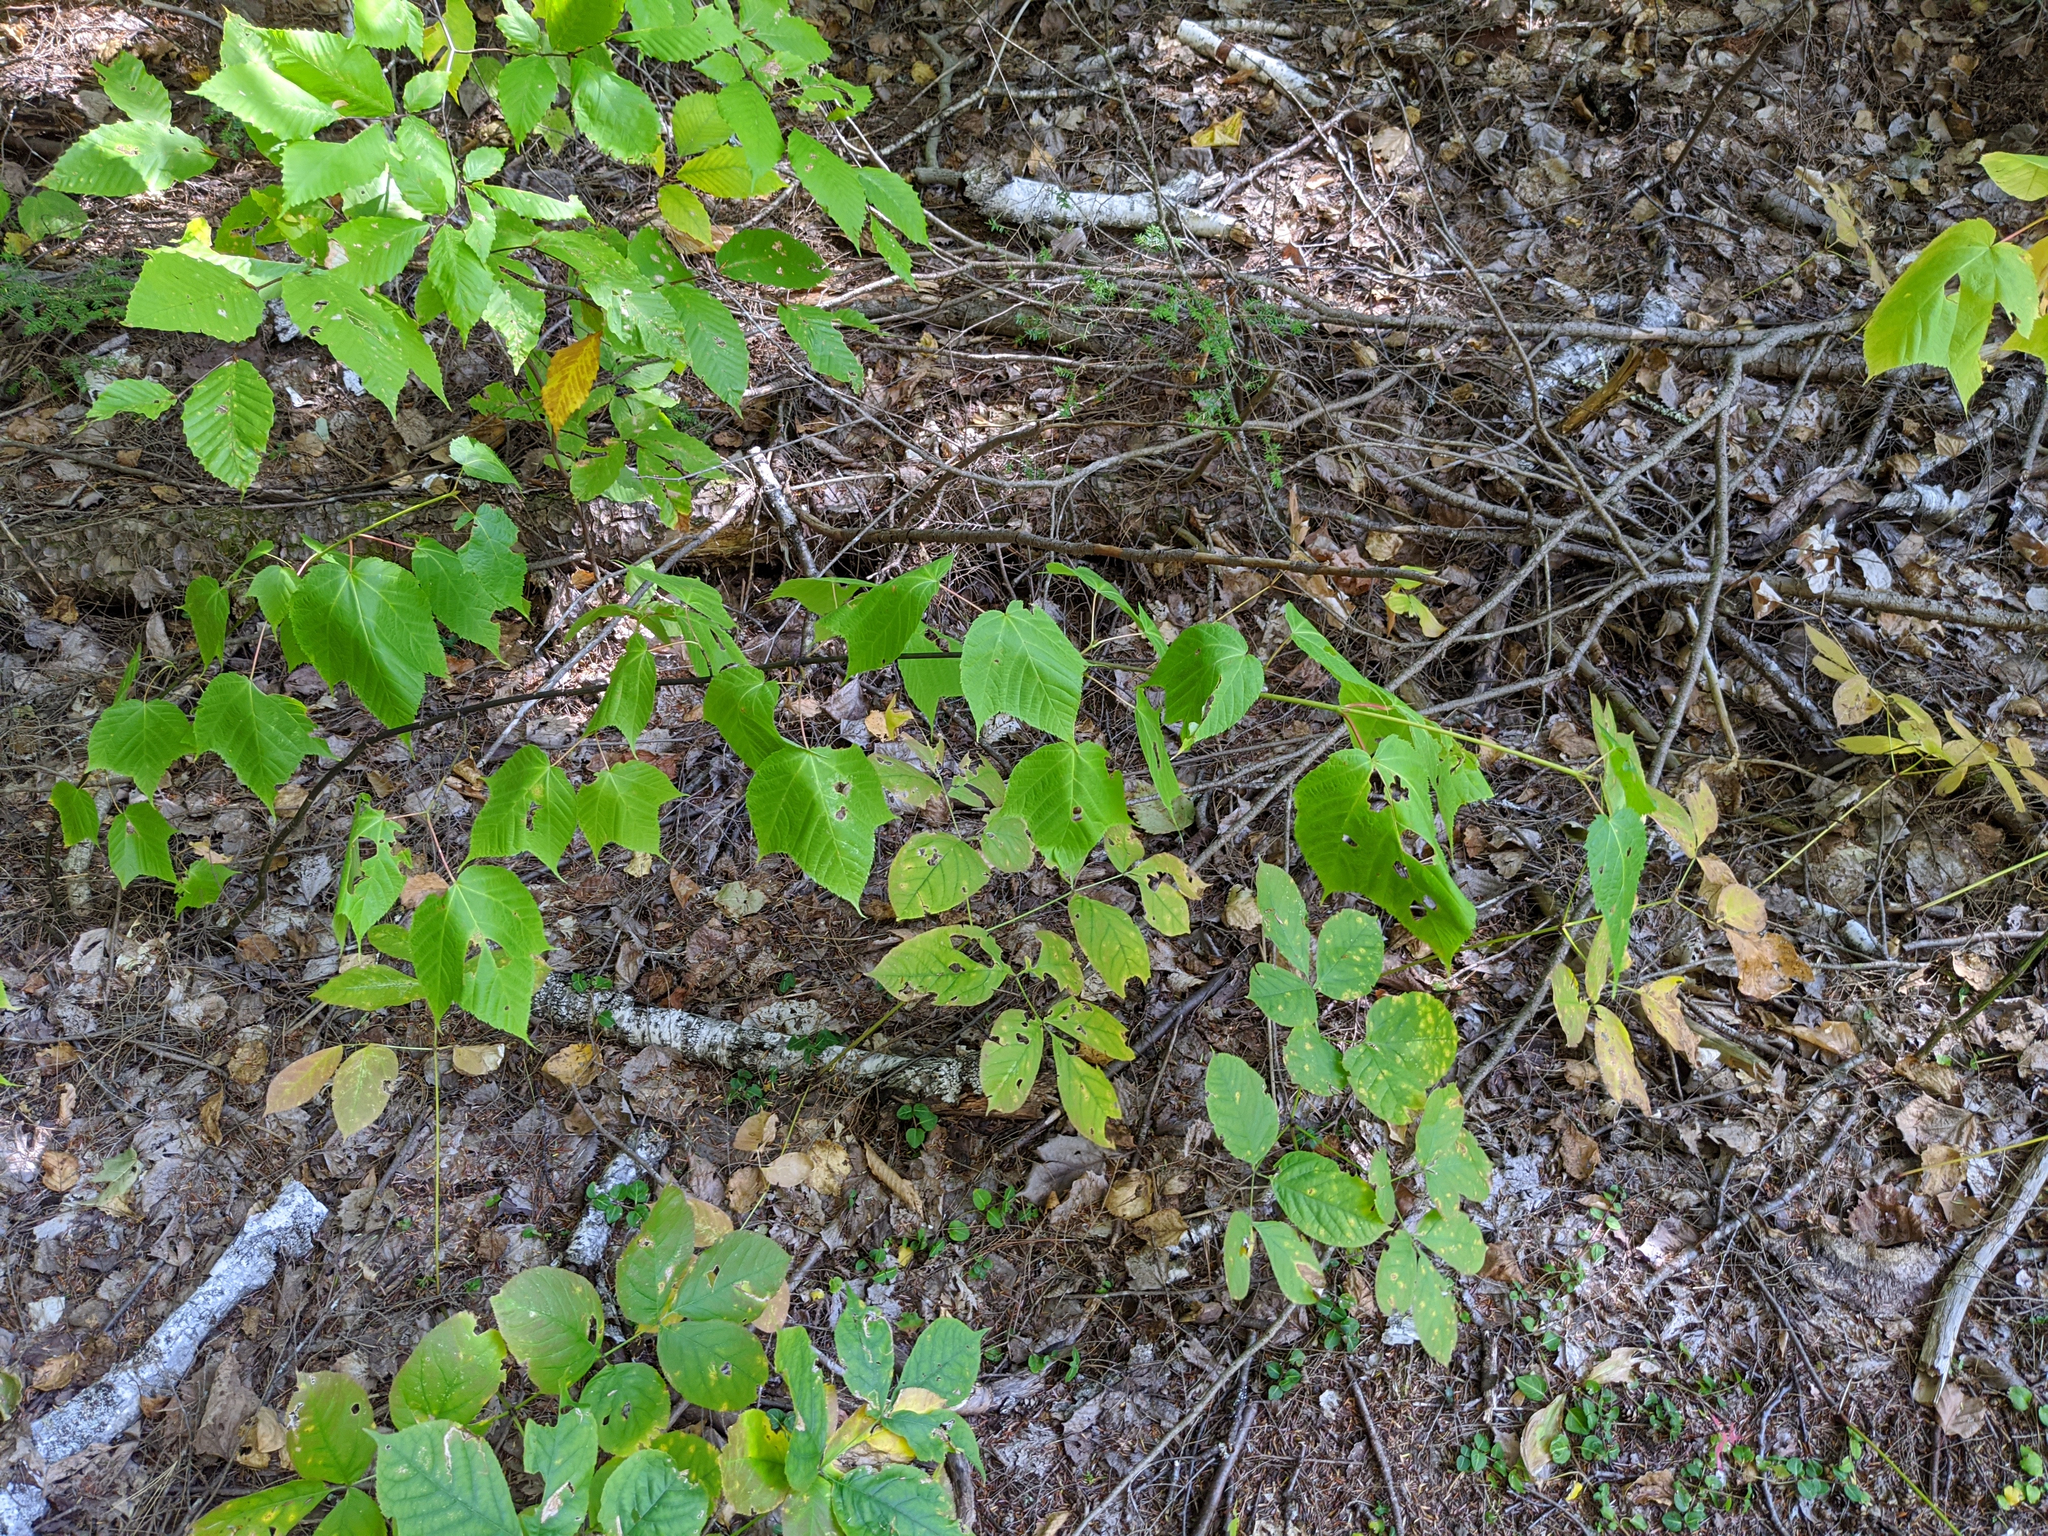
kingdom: Plantae
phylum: Tracheophyta
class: Magnoliopsida
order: Sapindales
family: Sapindaceae
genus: Acer
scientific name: Acer pensylvanicum
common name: Moosewood
